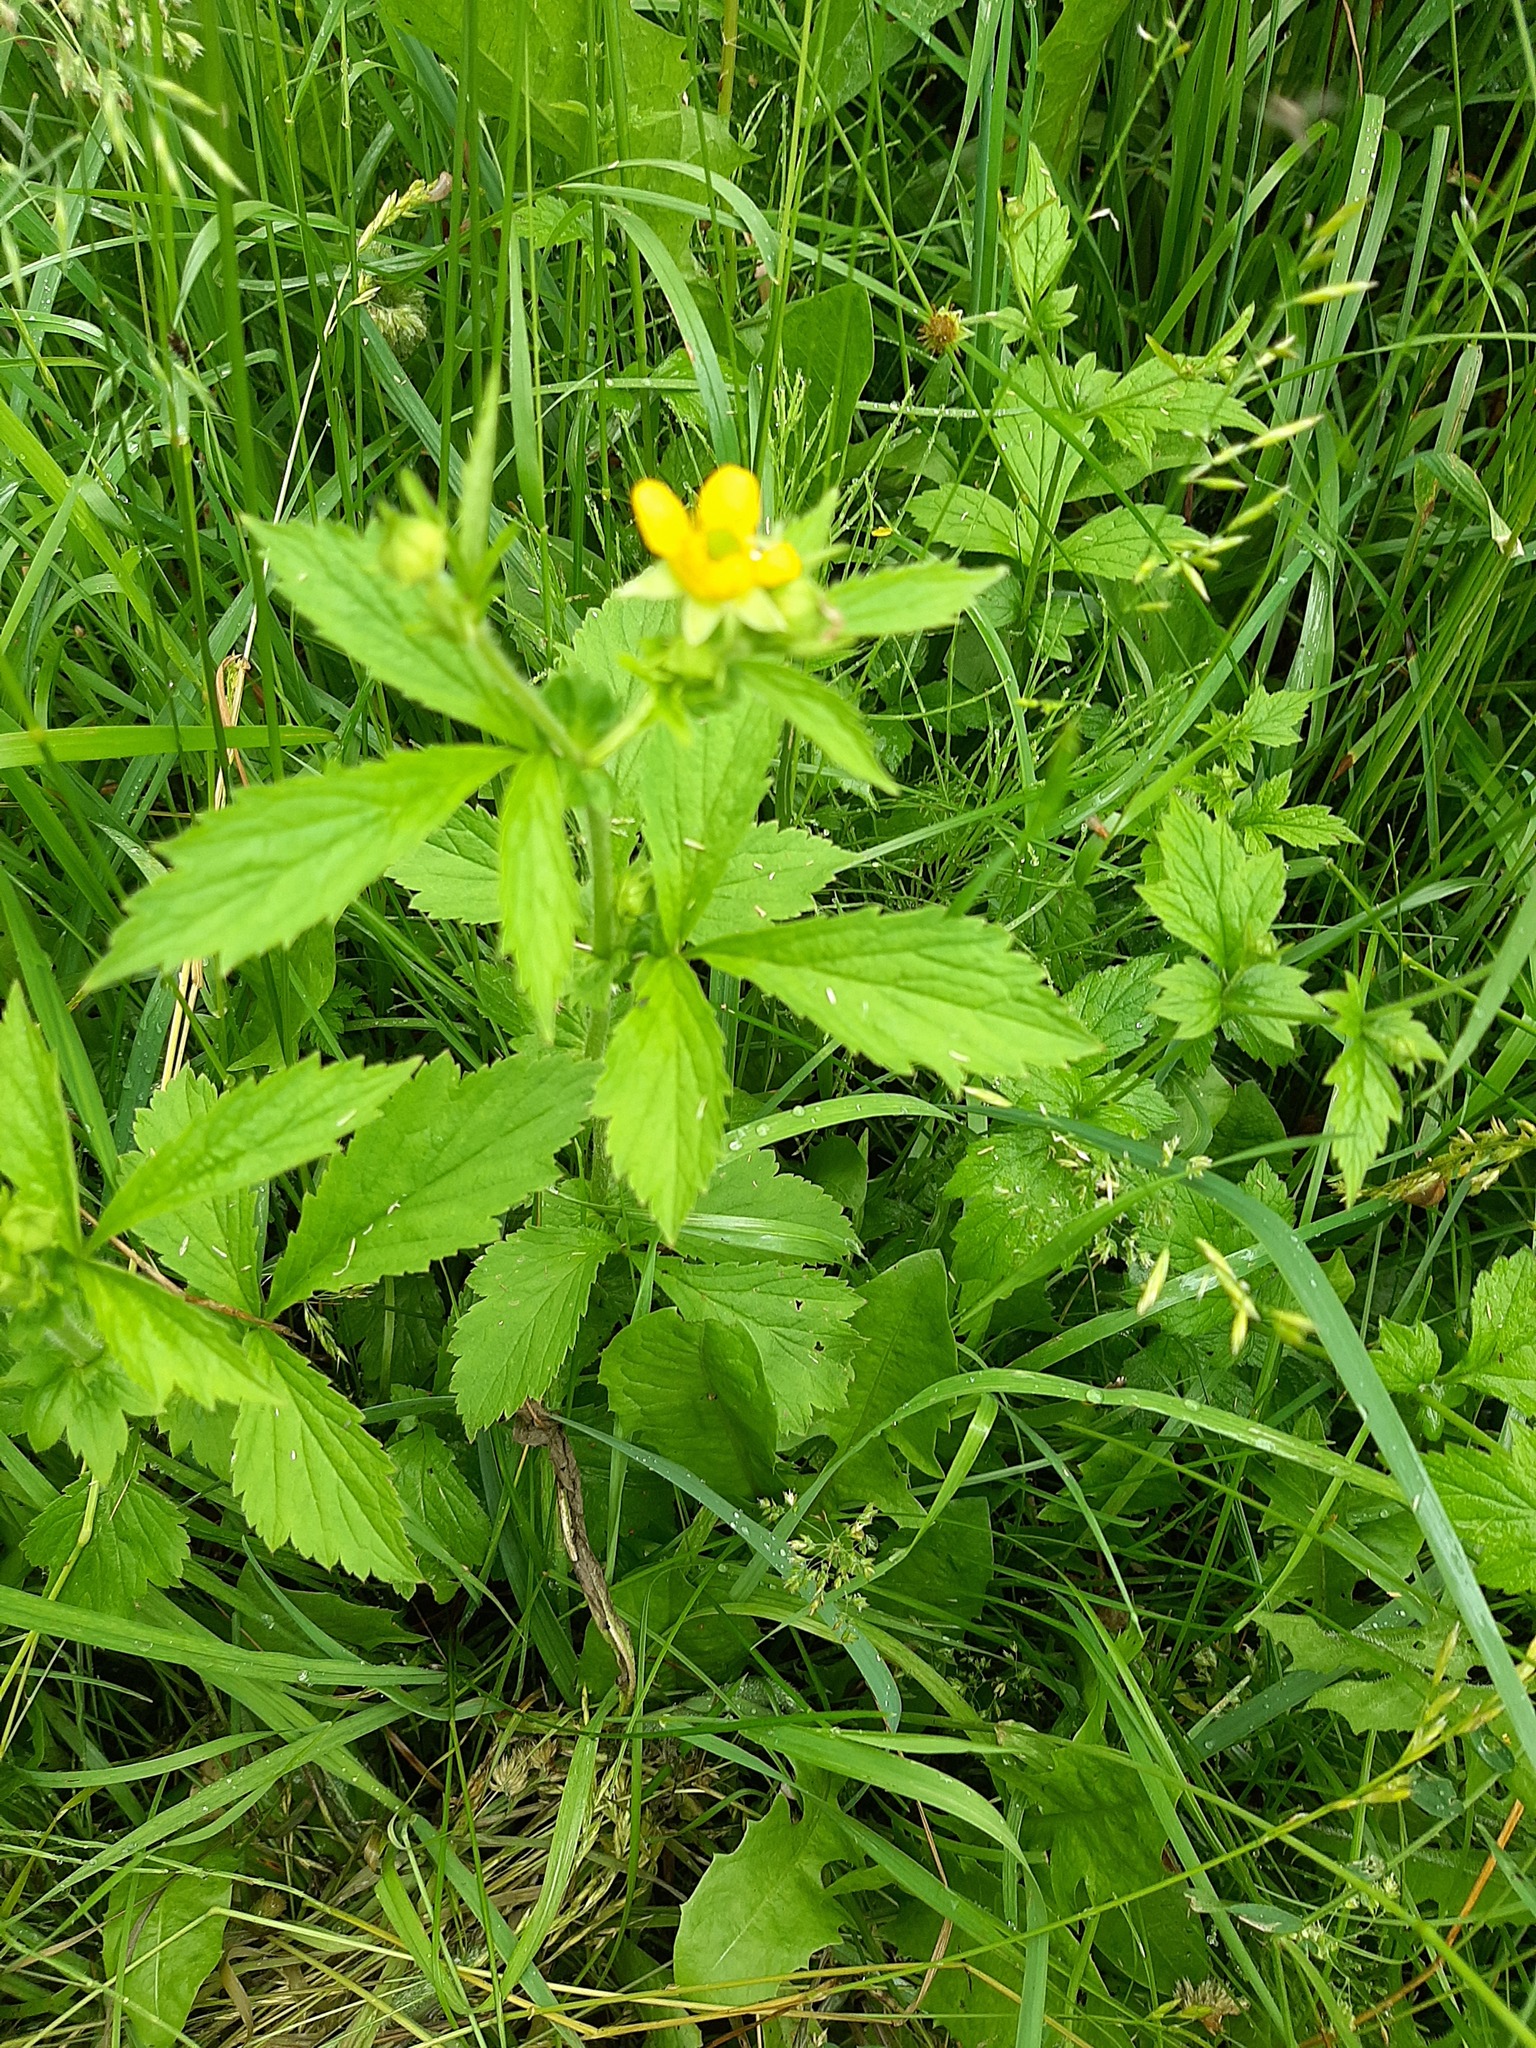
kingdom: Plantae
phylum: Tracheophyta
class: Magnoliopsida
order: Rosales
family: Rosaceae
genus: Geum
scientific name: Geum aleppicum
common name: Yellow avens
